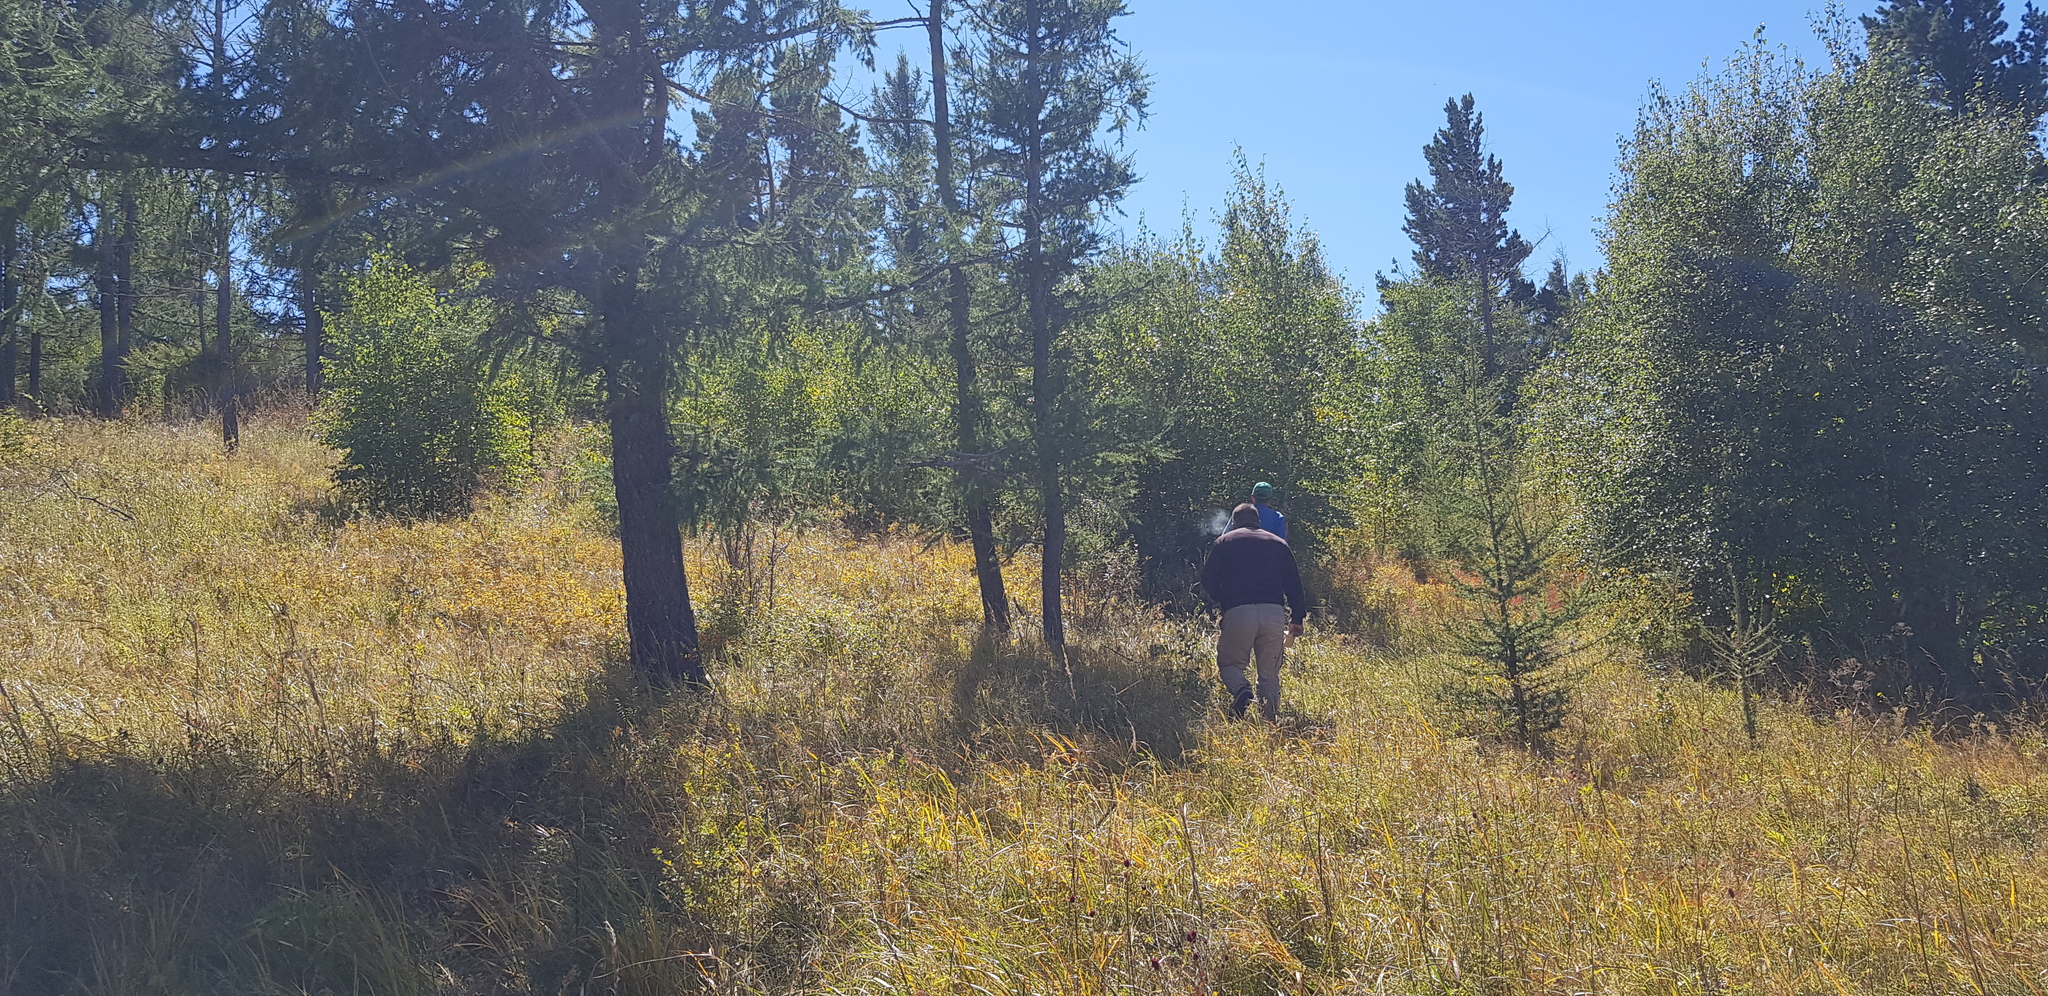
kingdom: Plantae
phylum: Tracheophyta
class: Pinopsida
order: Pinales
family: Pinaceae
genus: Pinus
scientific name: Pinus sylvestris
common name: Scots pine
